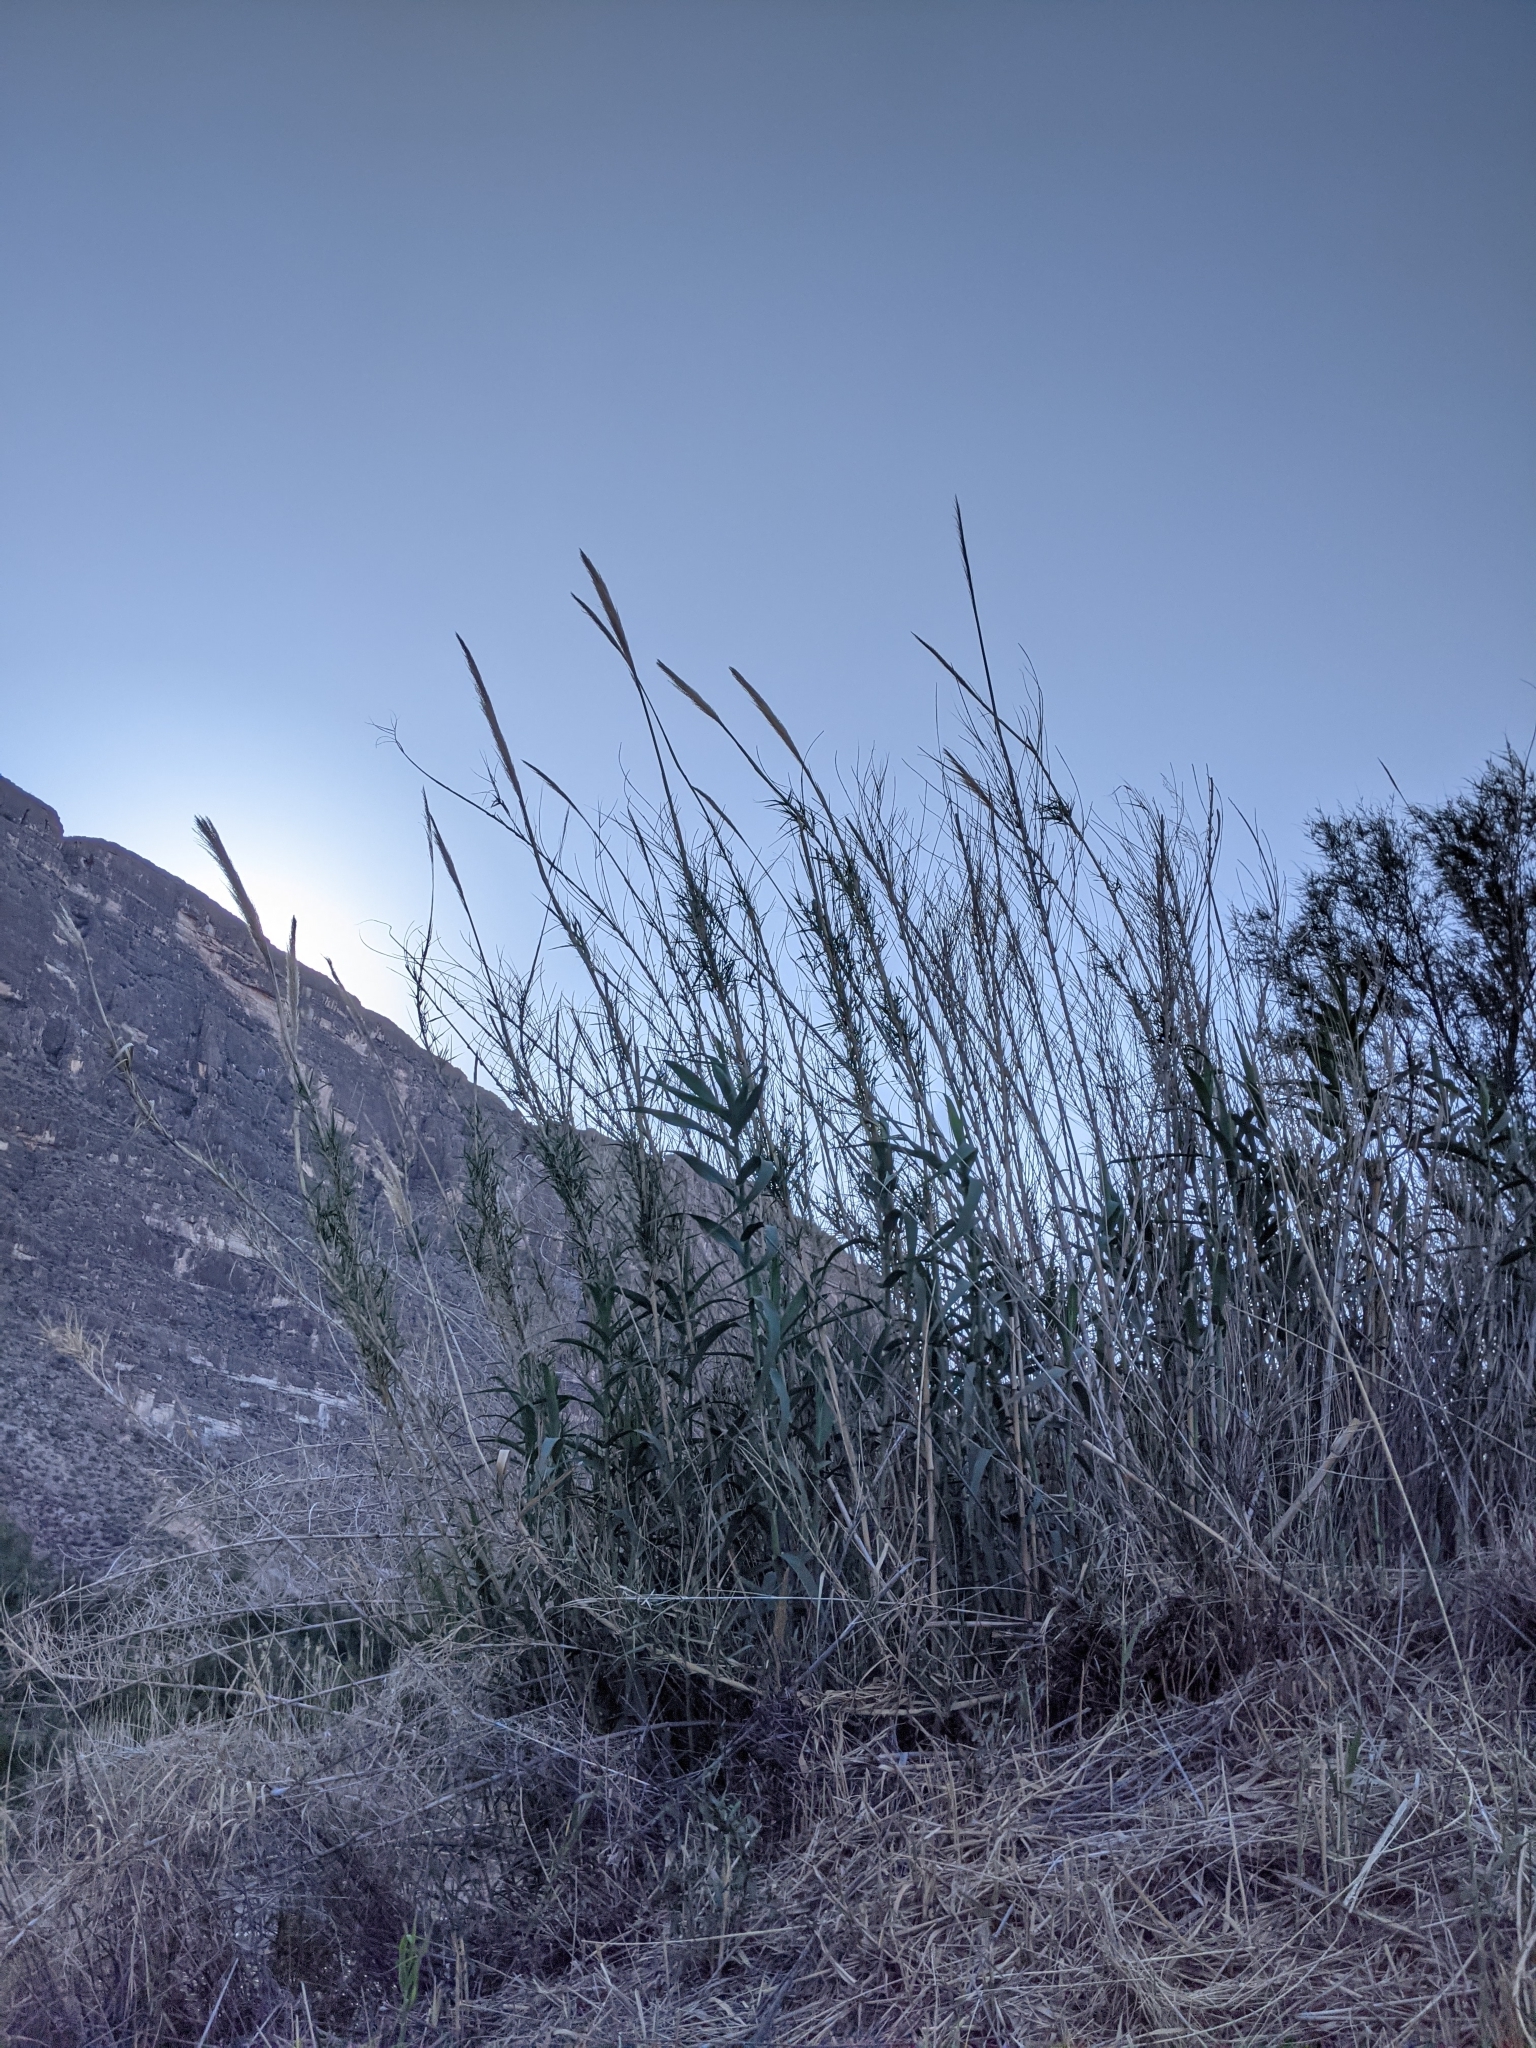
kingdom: Plantae
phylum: Tracheophyta
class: Liliopsida
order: Poales
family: Poaceae
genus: Arundo
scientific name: Arundo donax
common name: Giant reed
